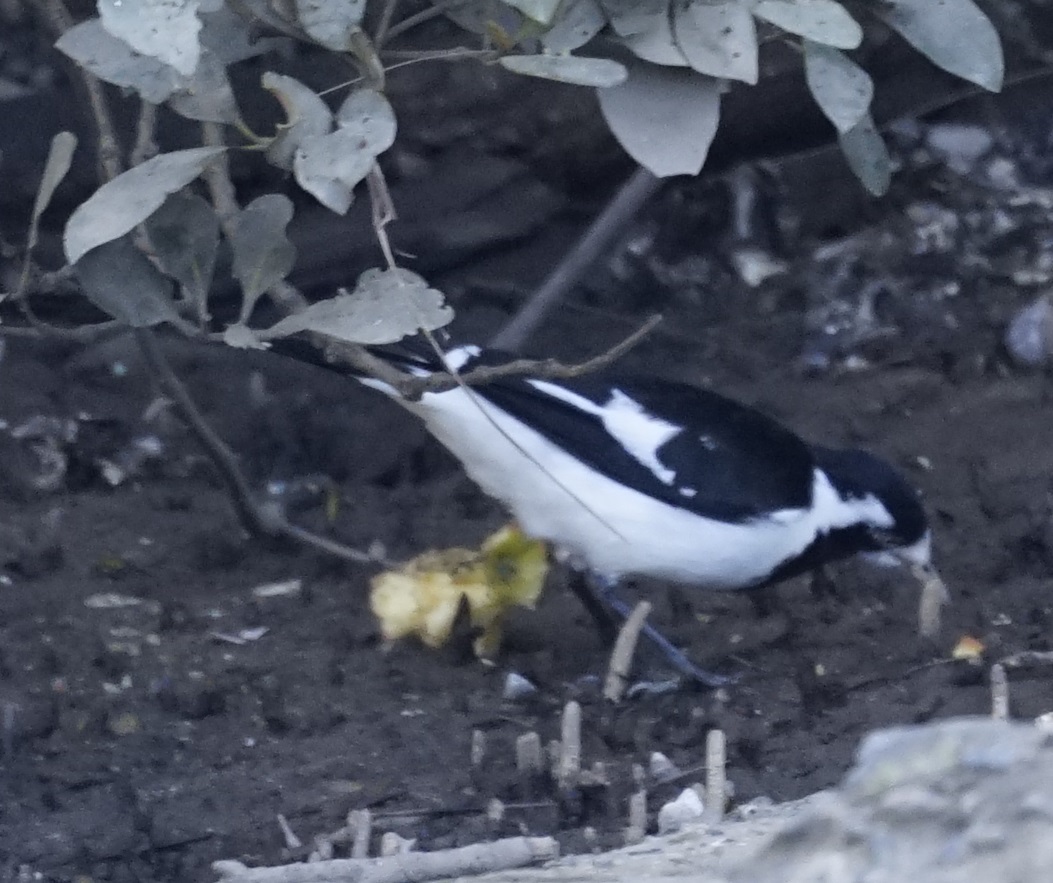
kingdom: Animalia
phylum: Chordata
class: Aves
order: Passeriformes
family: Monarchidae
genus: Grallina
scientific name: Grallina cyanoleuca
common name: Magpie-lark
